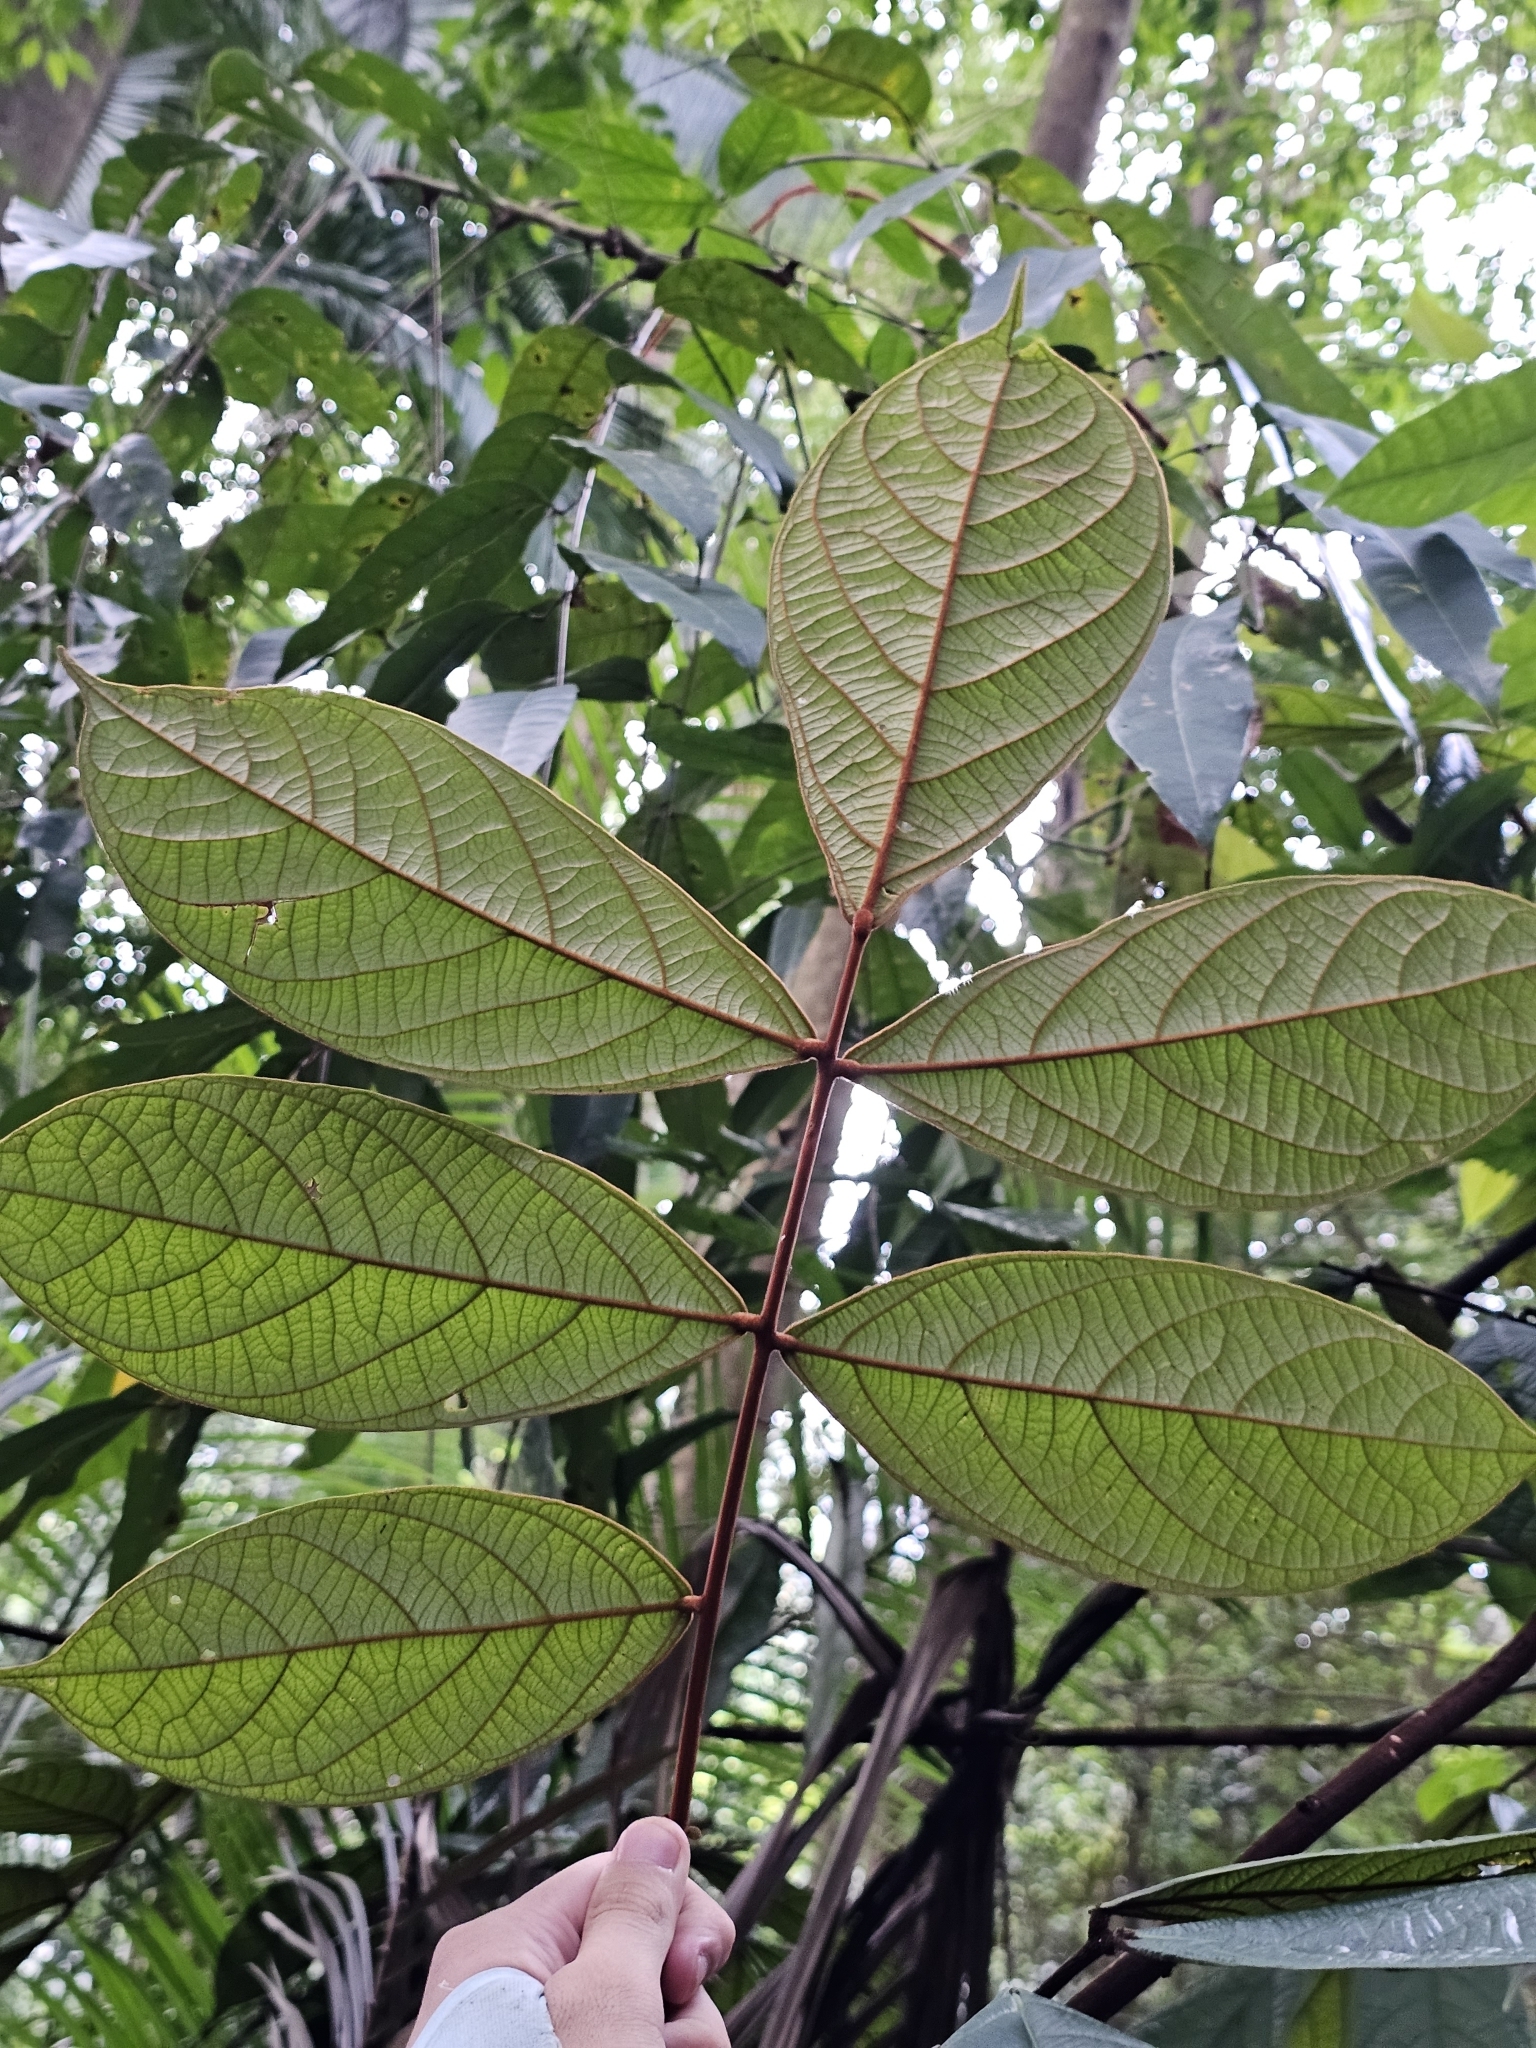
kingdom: Plantae
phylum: Tracheophyta
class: Magnoliopsida
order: Oxalidales
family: Connaraceae
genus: Connarus
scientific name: Connarus ferrugineus
